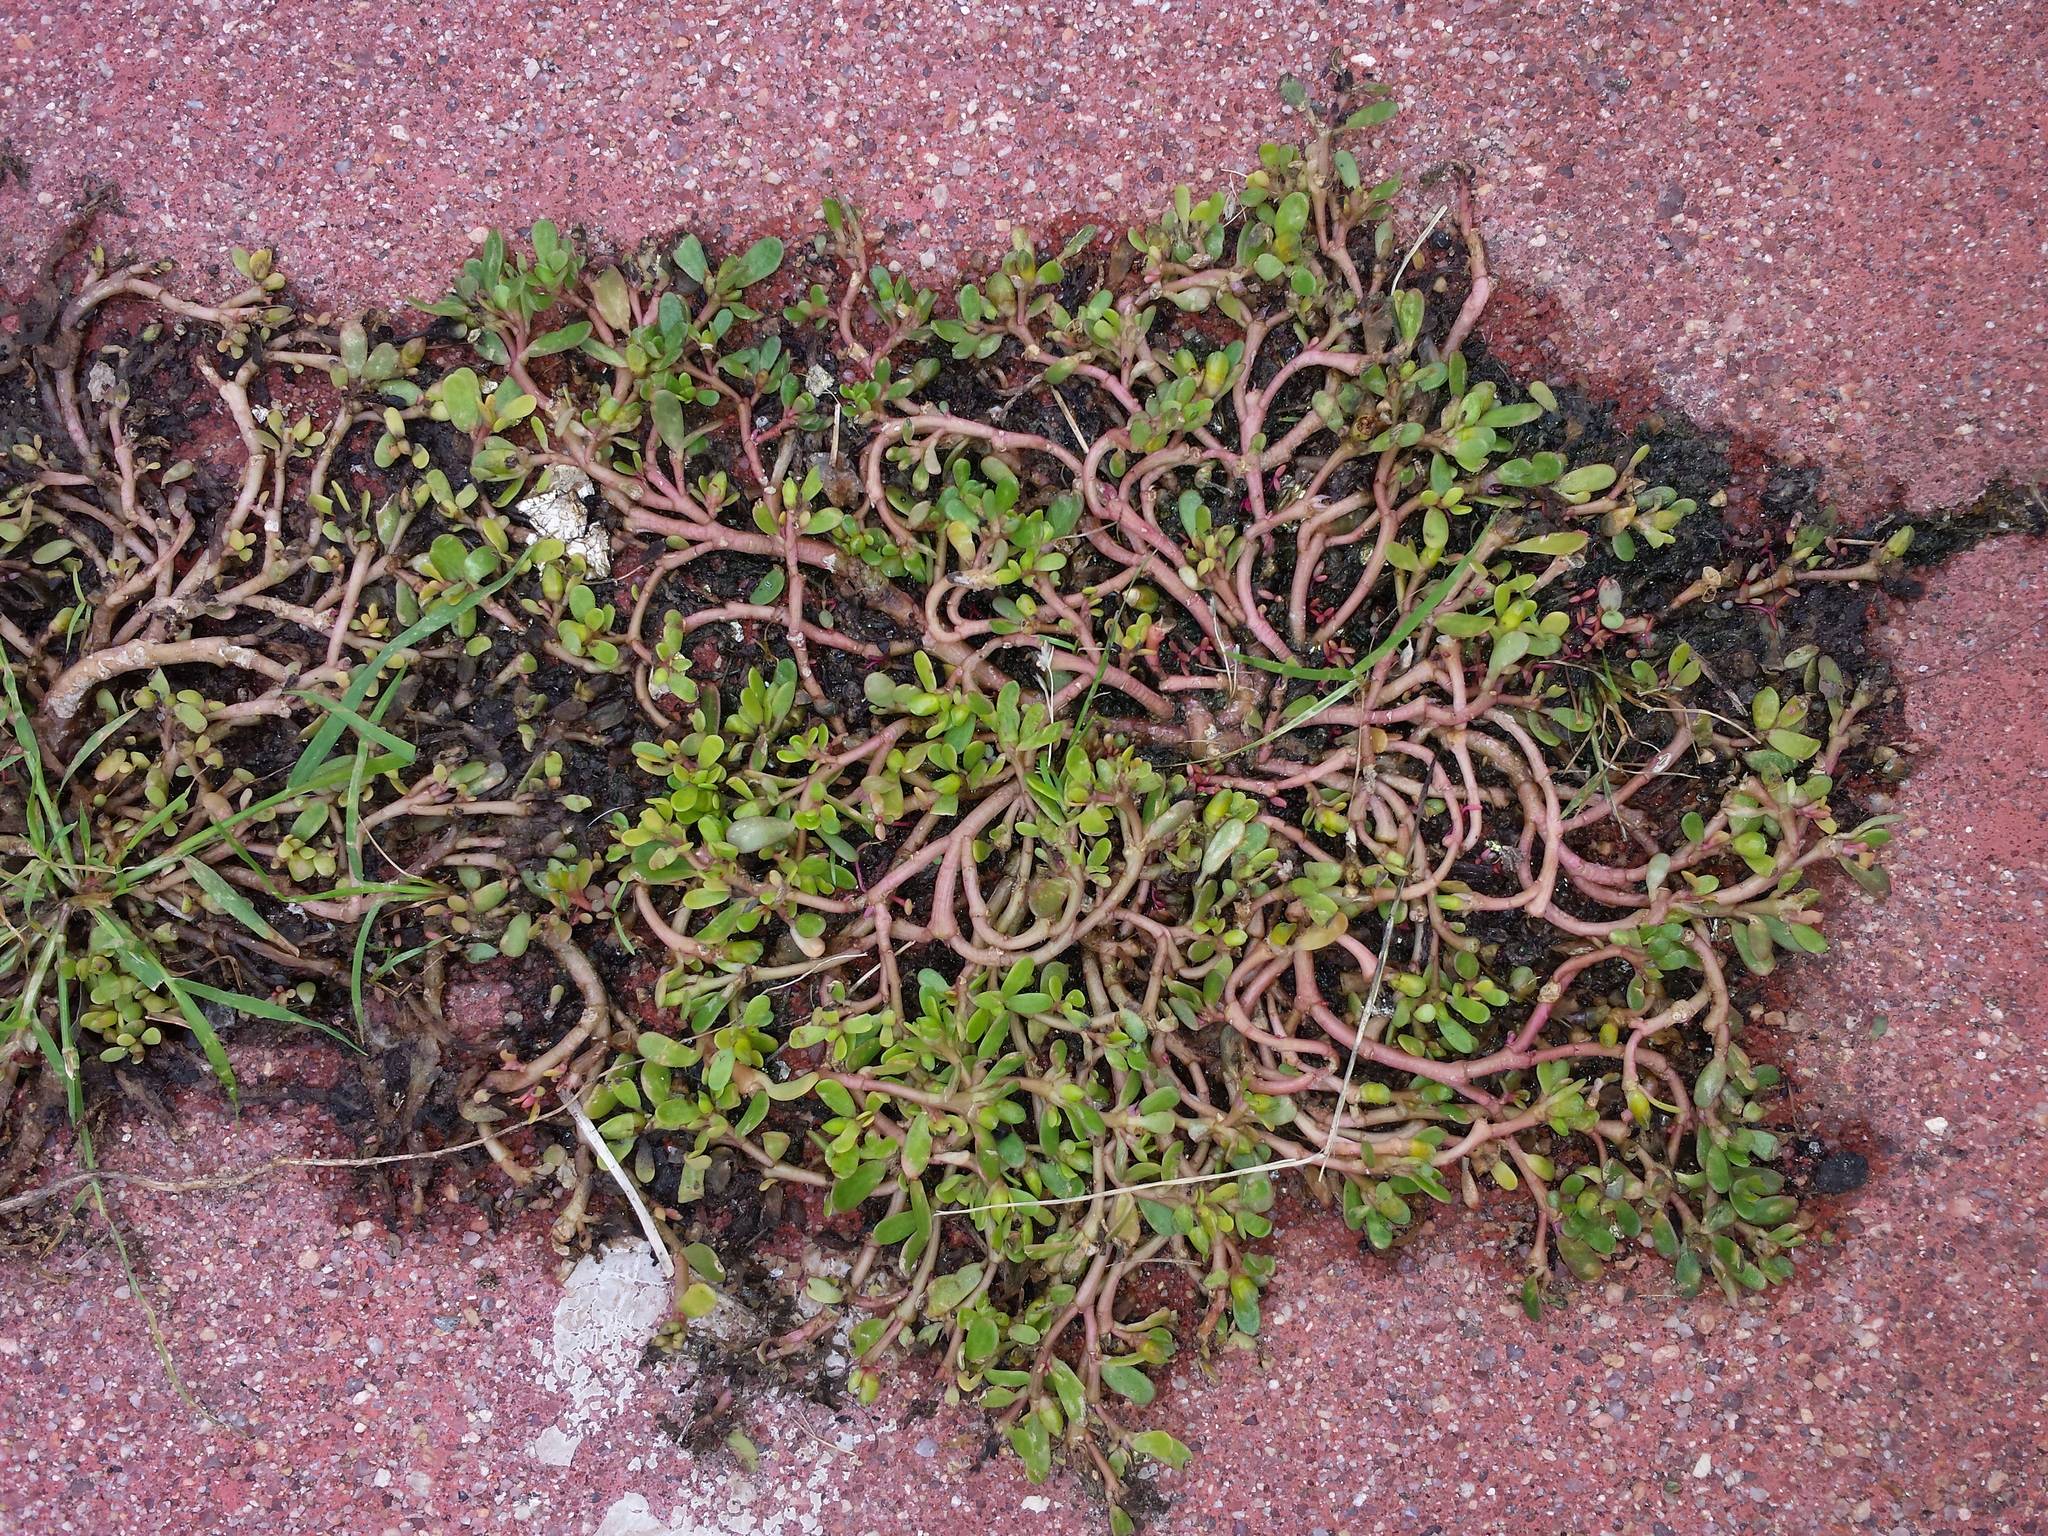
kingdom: Plantae
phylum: Tracheophyta
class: Magnoliopsida
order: Caryophyllales
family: Portulacaceae
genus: Portulaca
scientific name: Portulaca oleracea
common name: Common purslane
